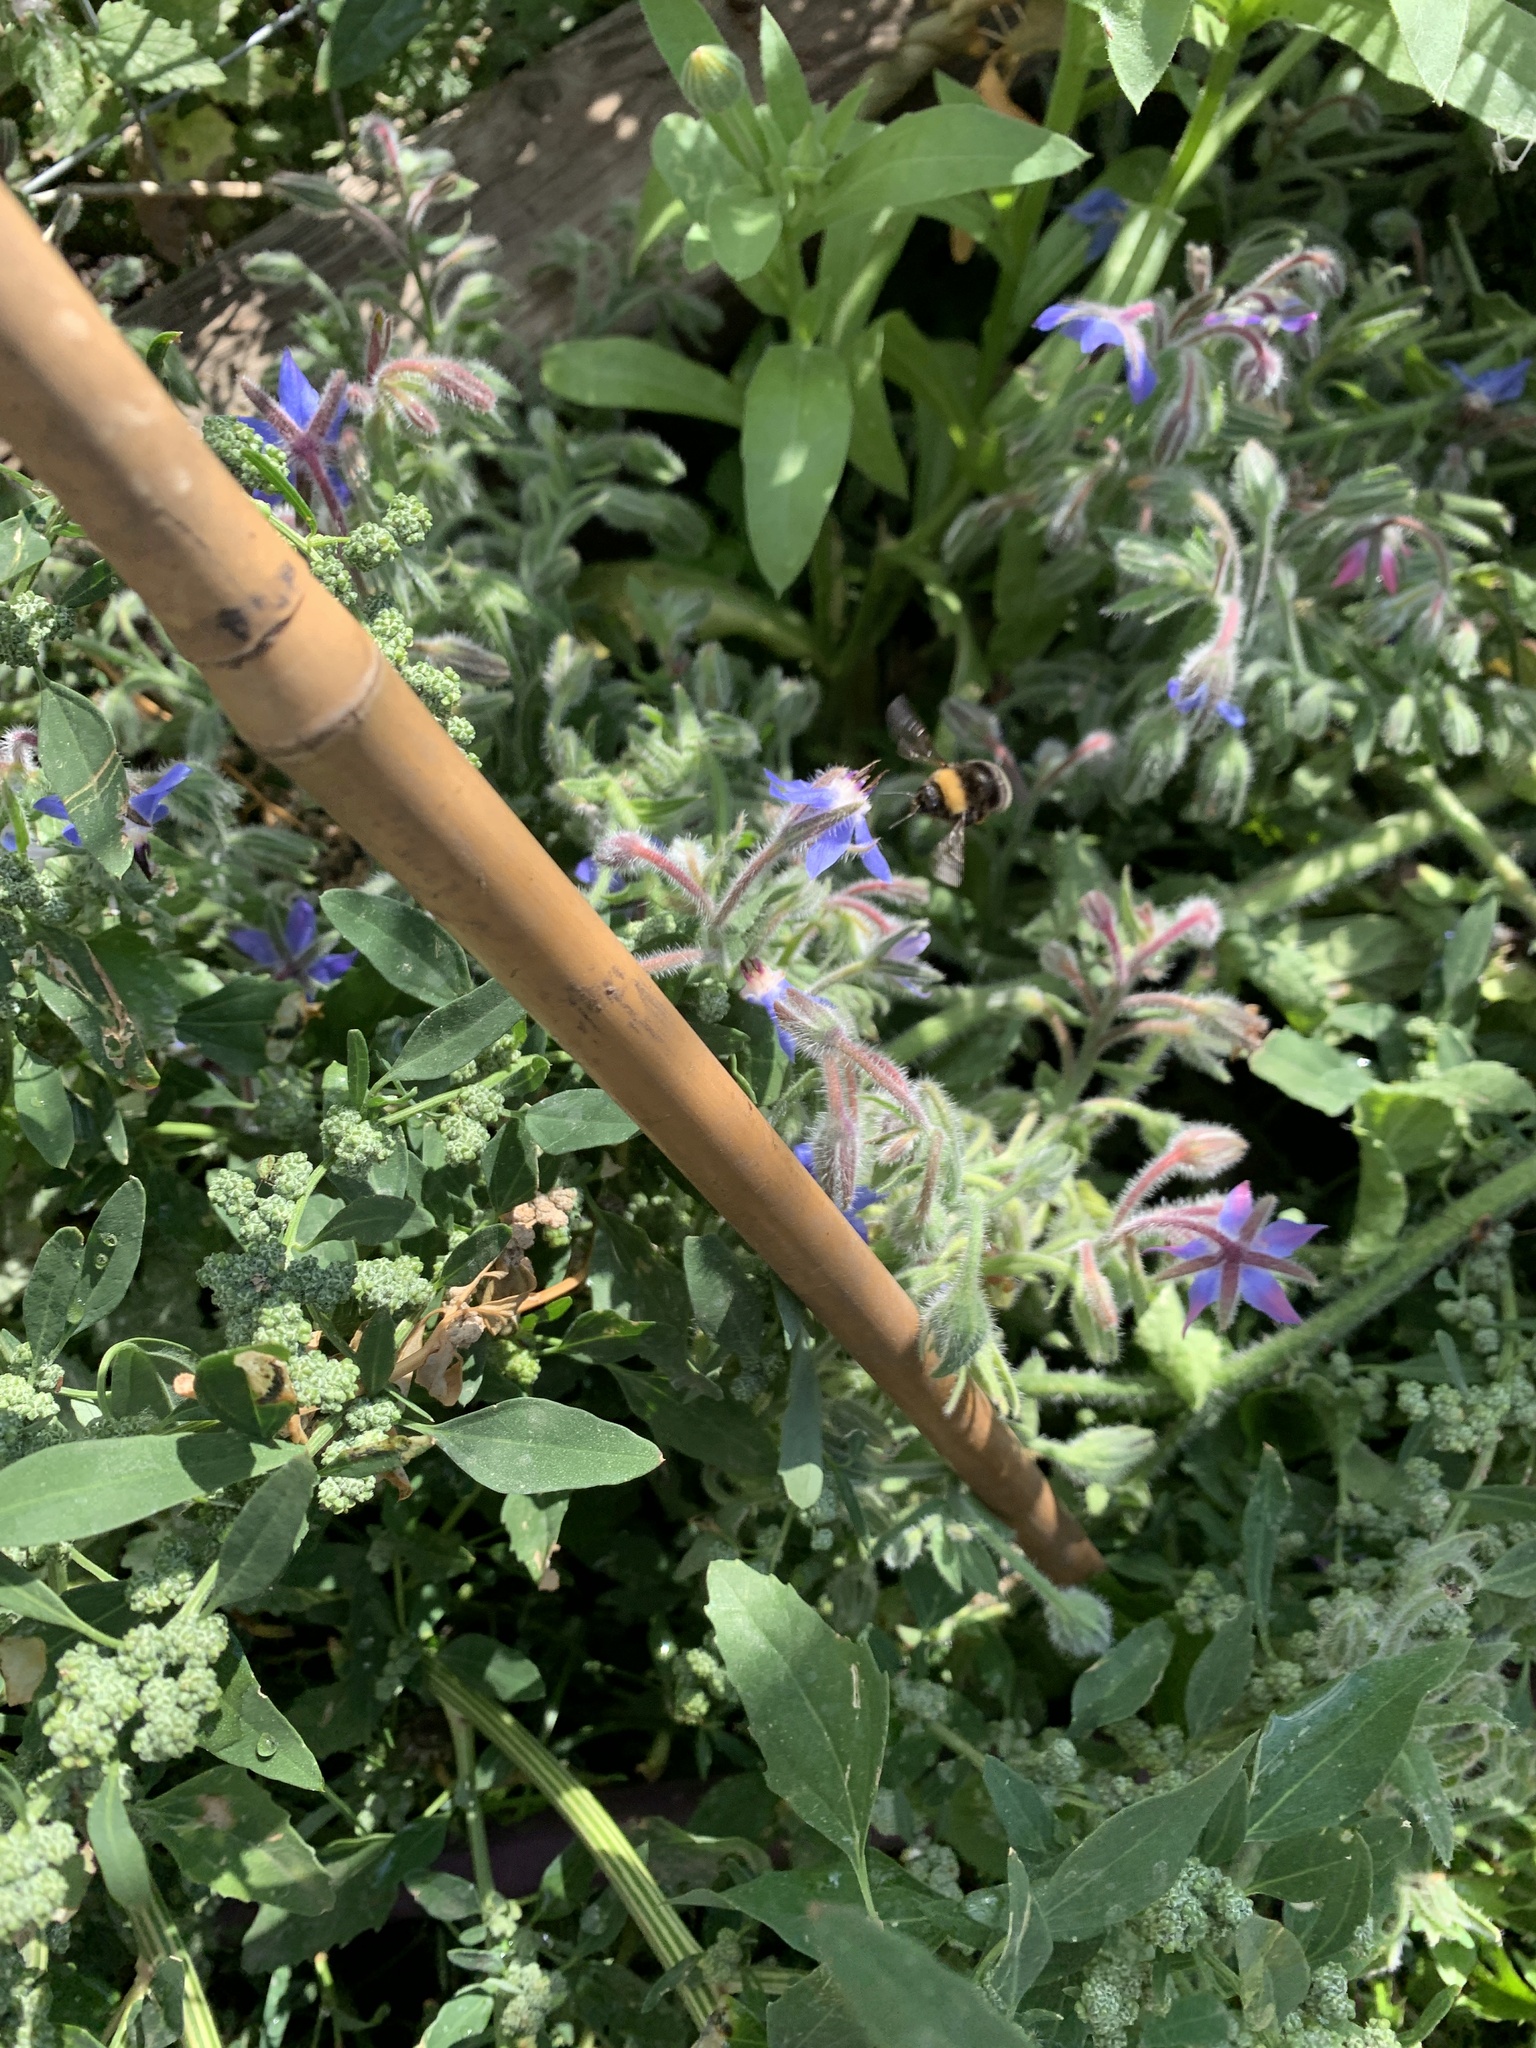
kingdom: Animalia
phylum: Arthropoda
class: Insecta
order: Hymenoptera
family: Apidae
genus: Bombus
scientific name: Bombus occidentalis
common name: Western bumble bee
